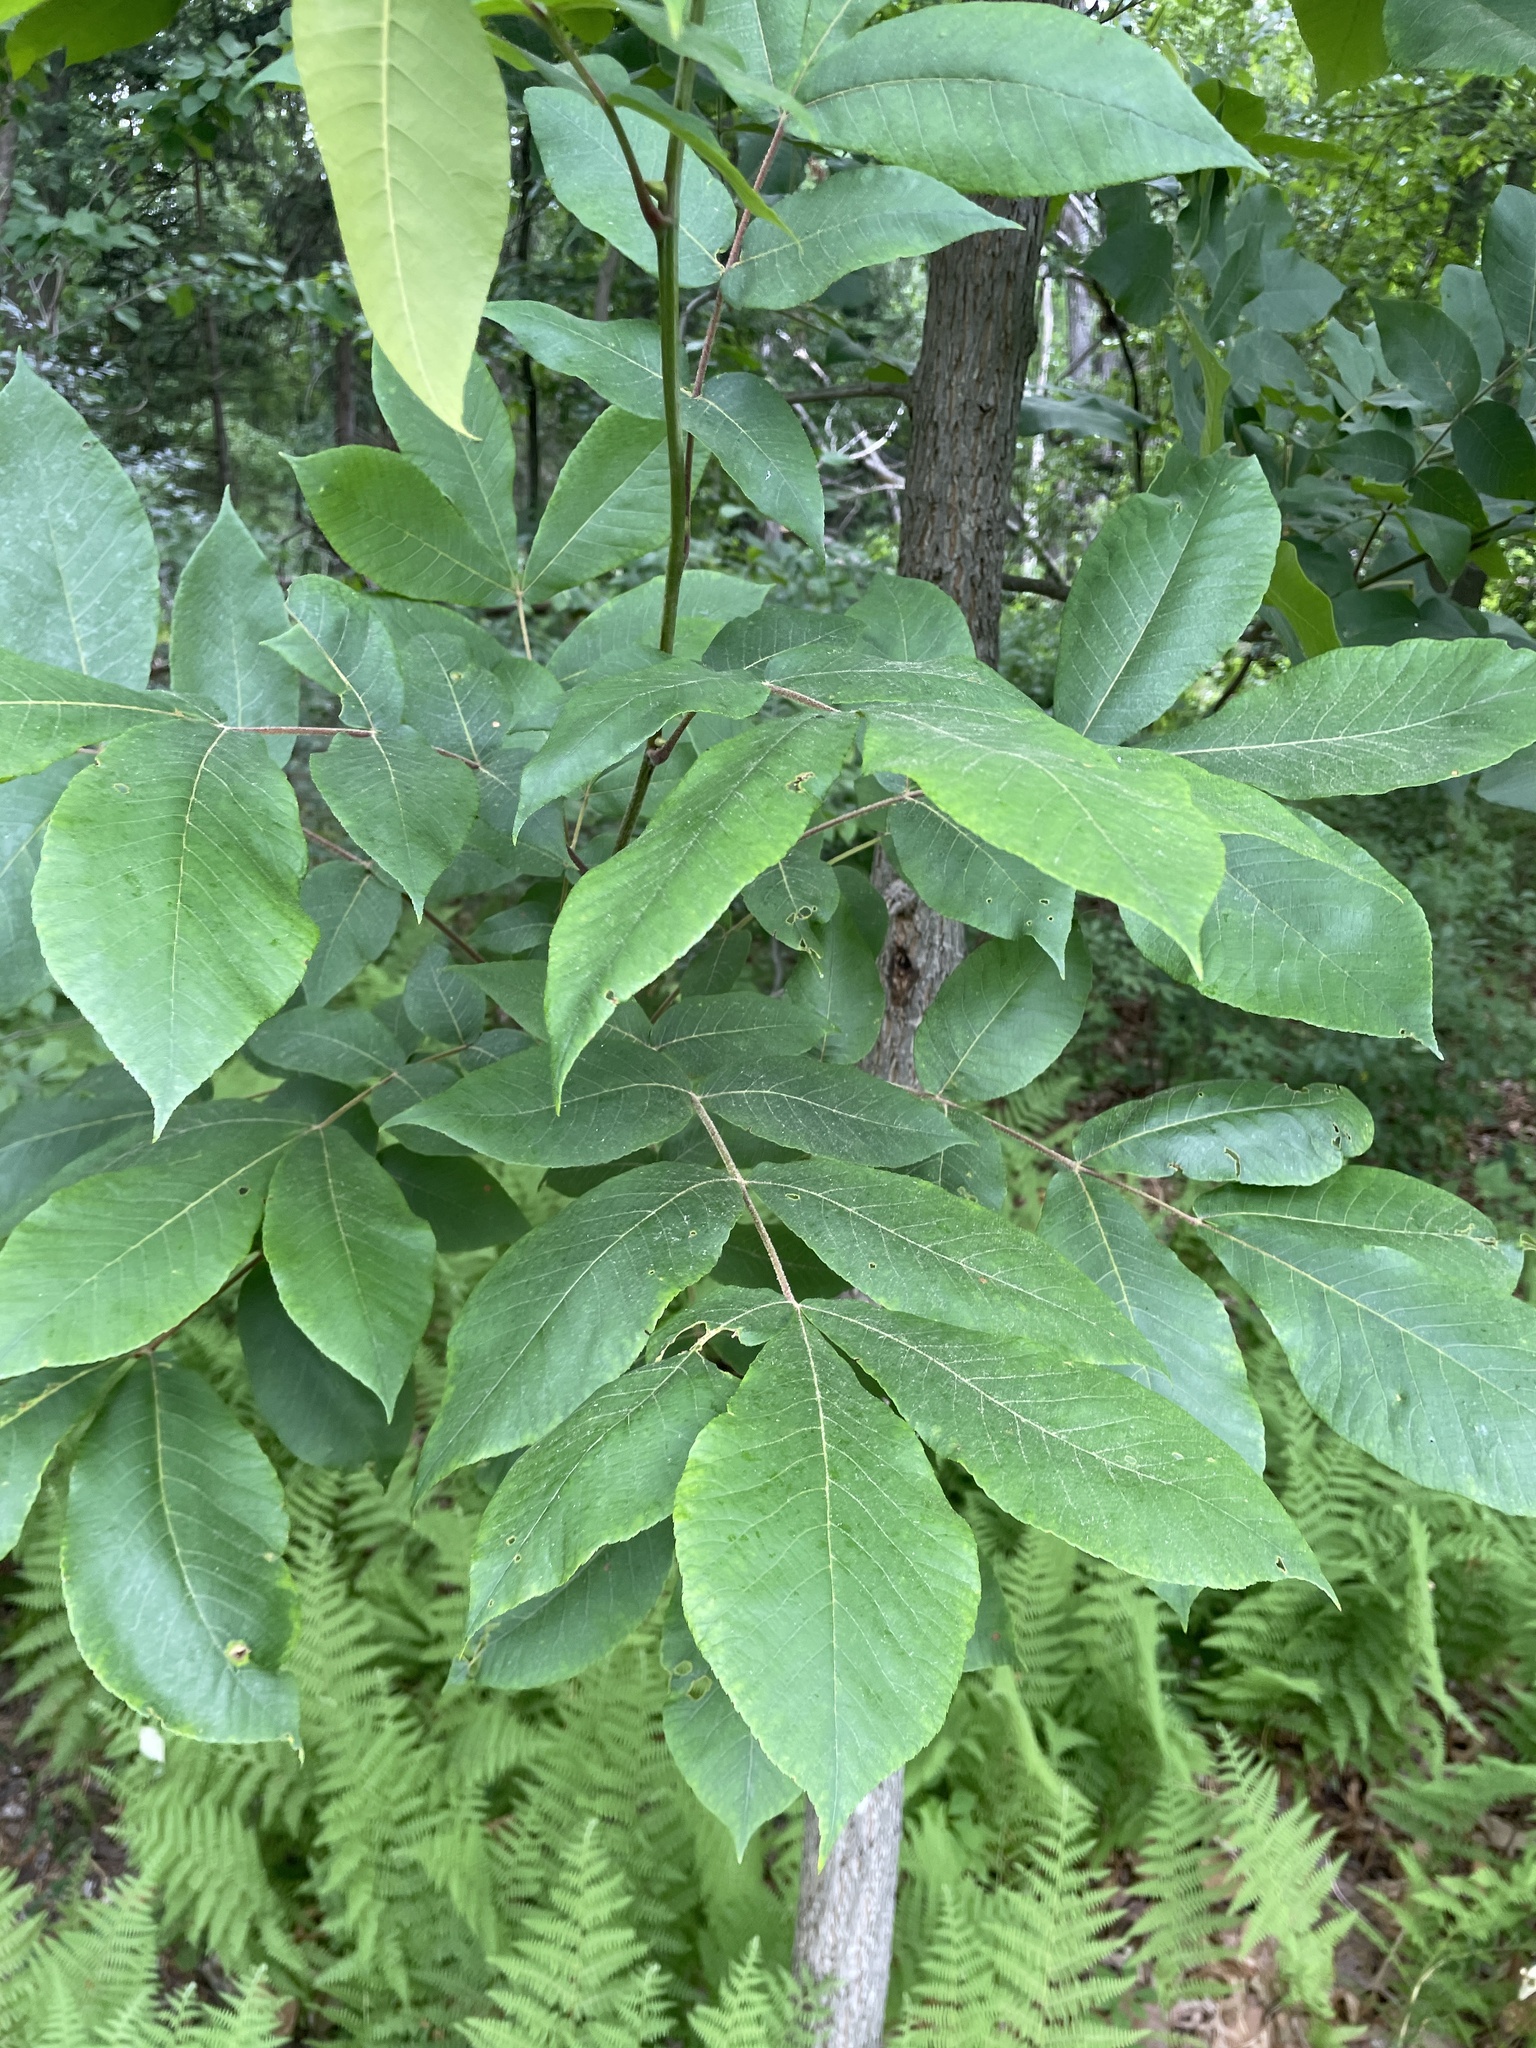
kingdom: Plantae
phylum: Tracheophyta
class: Magnoliopsida
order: Fagales
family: Juglandaceae
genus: Carya
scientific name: Carya alba
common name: Mockernut hickory
